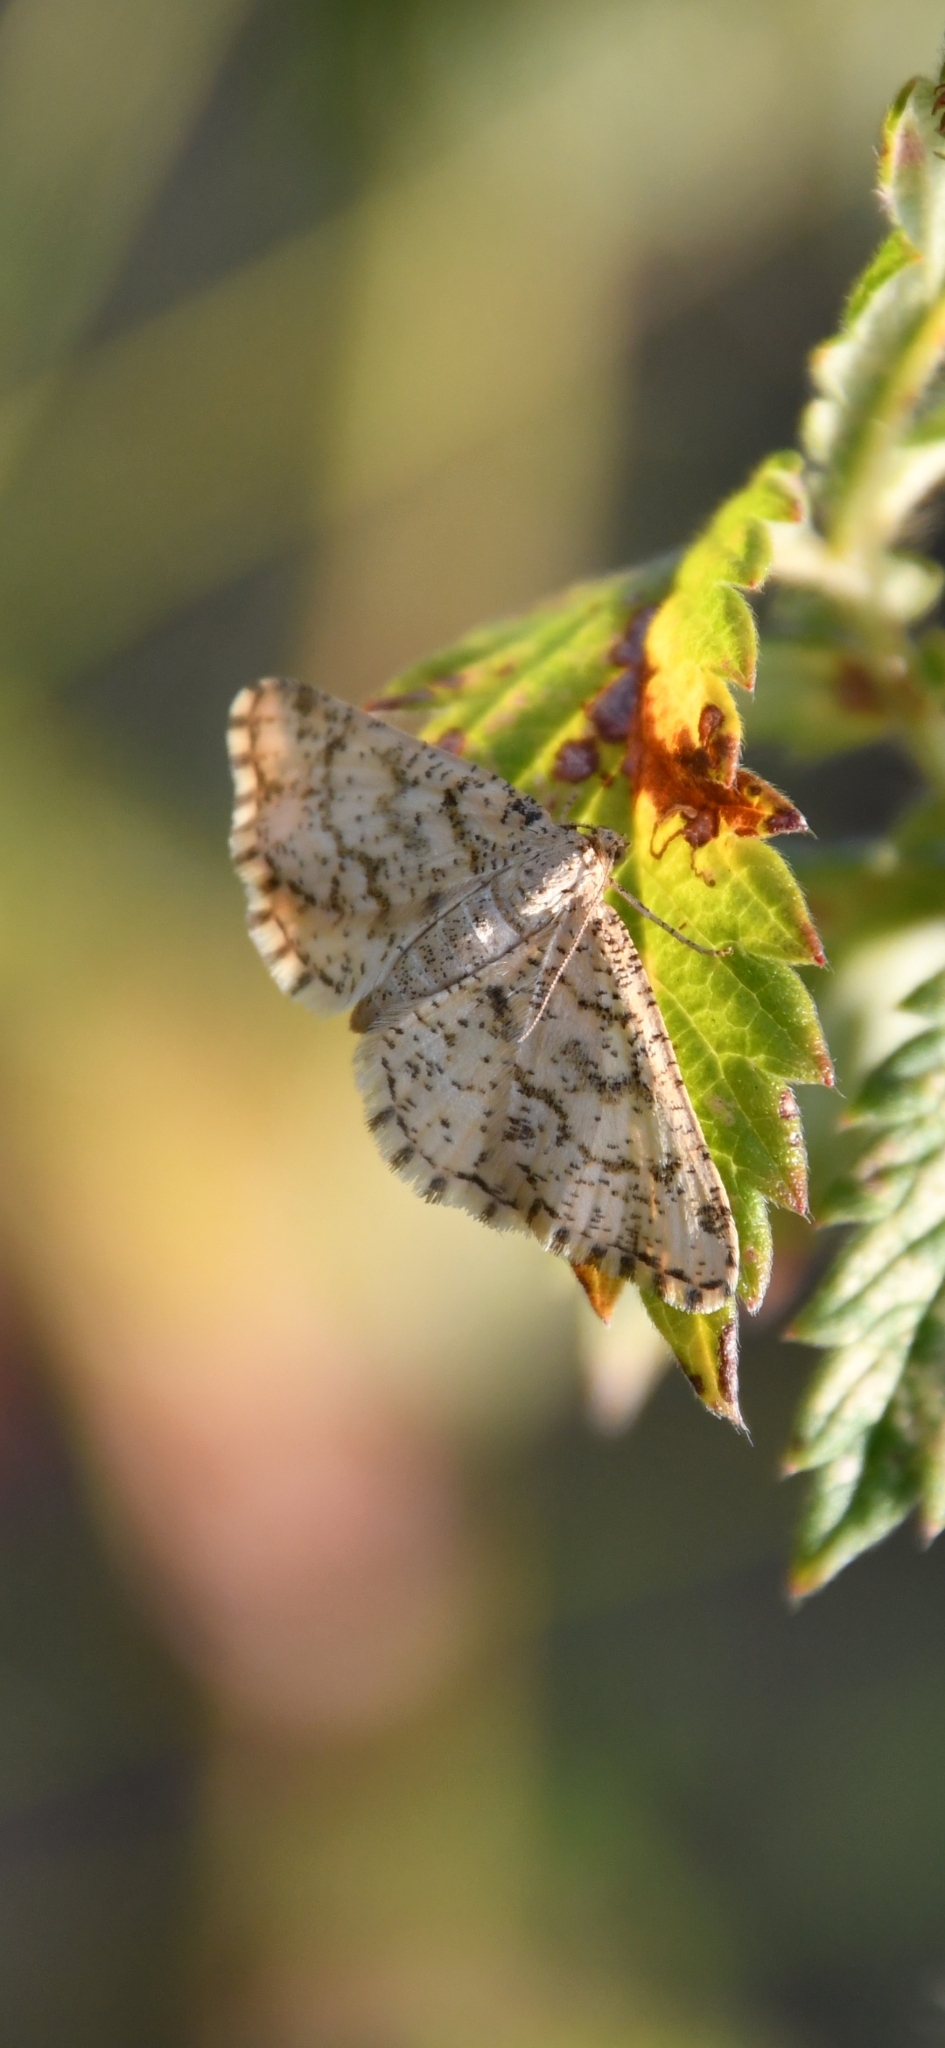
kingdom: Animalia
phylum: Arthropoda
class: Insecta
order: Lepidoptera
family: Geometridae
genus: Heliomata
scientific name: Heliomata glarearia
